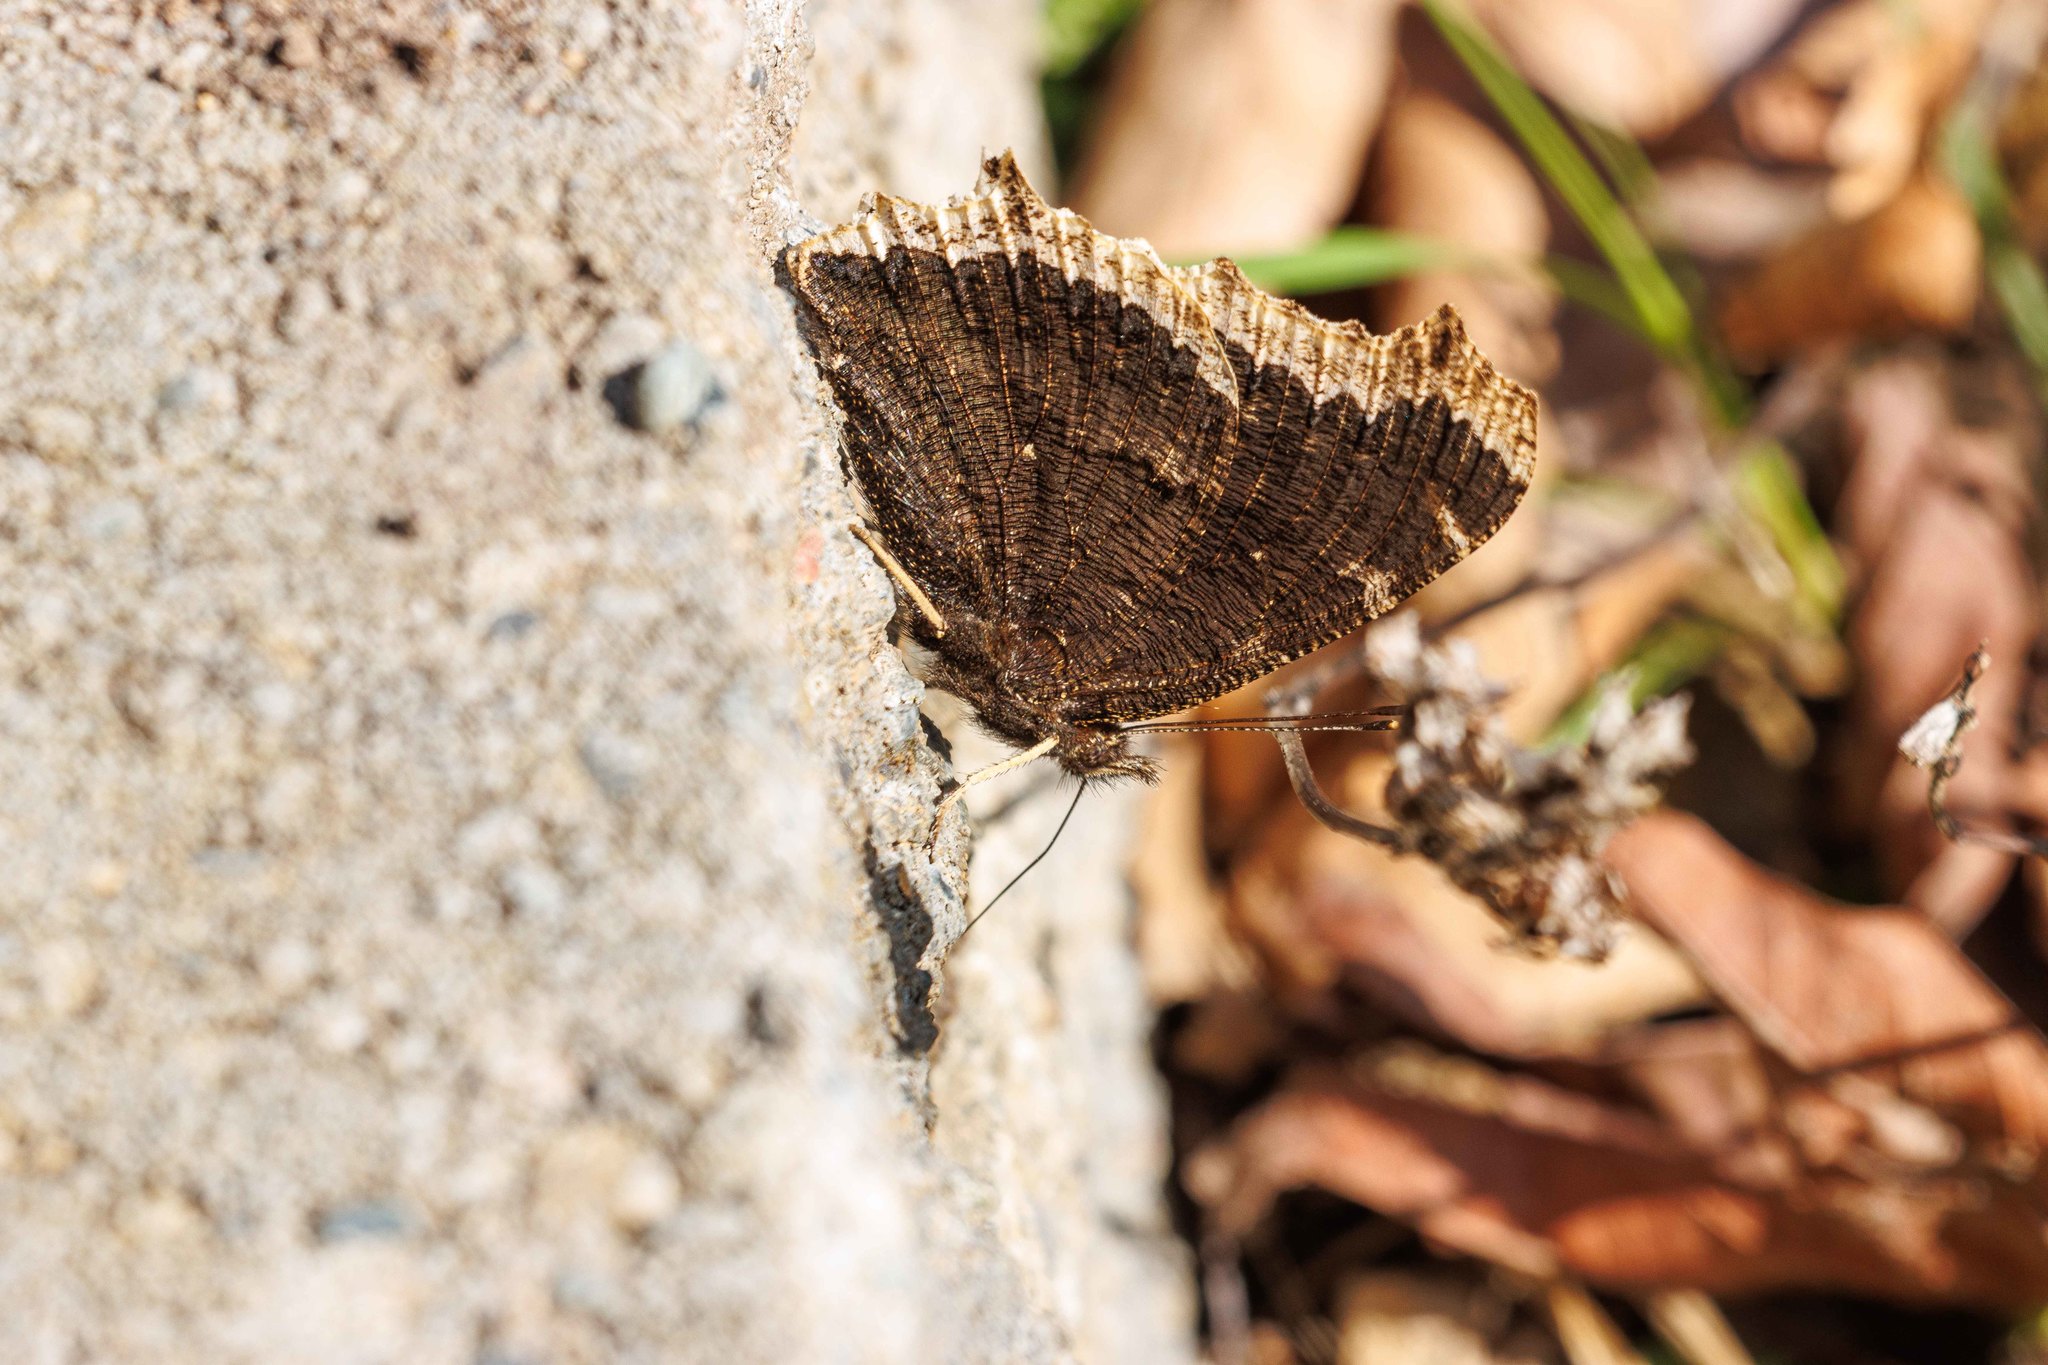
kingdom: Animalia
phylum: Arthropoda
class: Insecta
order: Lepidoptera
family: Nymphalidae
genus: Nymphalis
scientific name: Nymphalis antiopa
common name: Camberwell beauty
